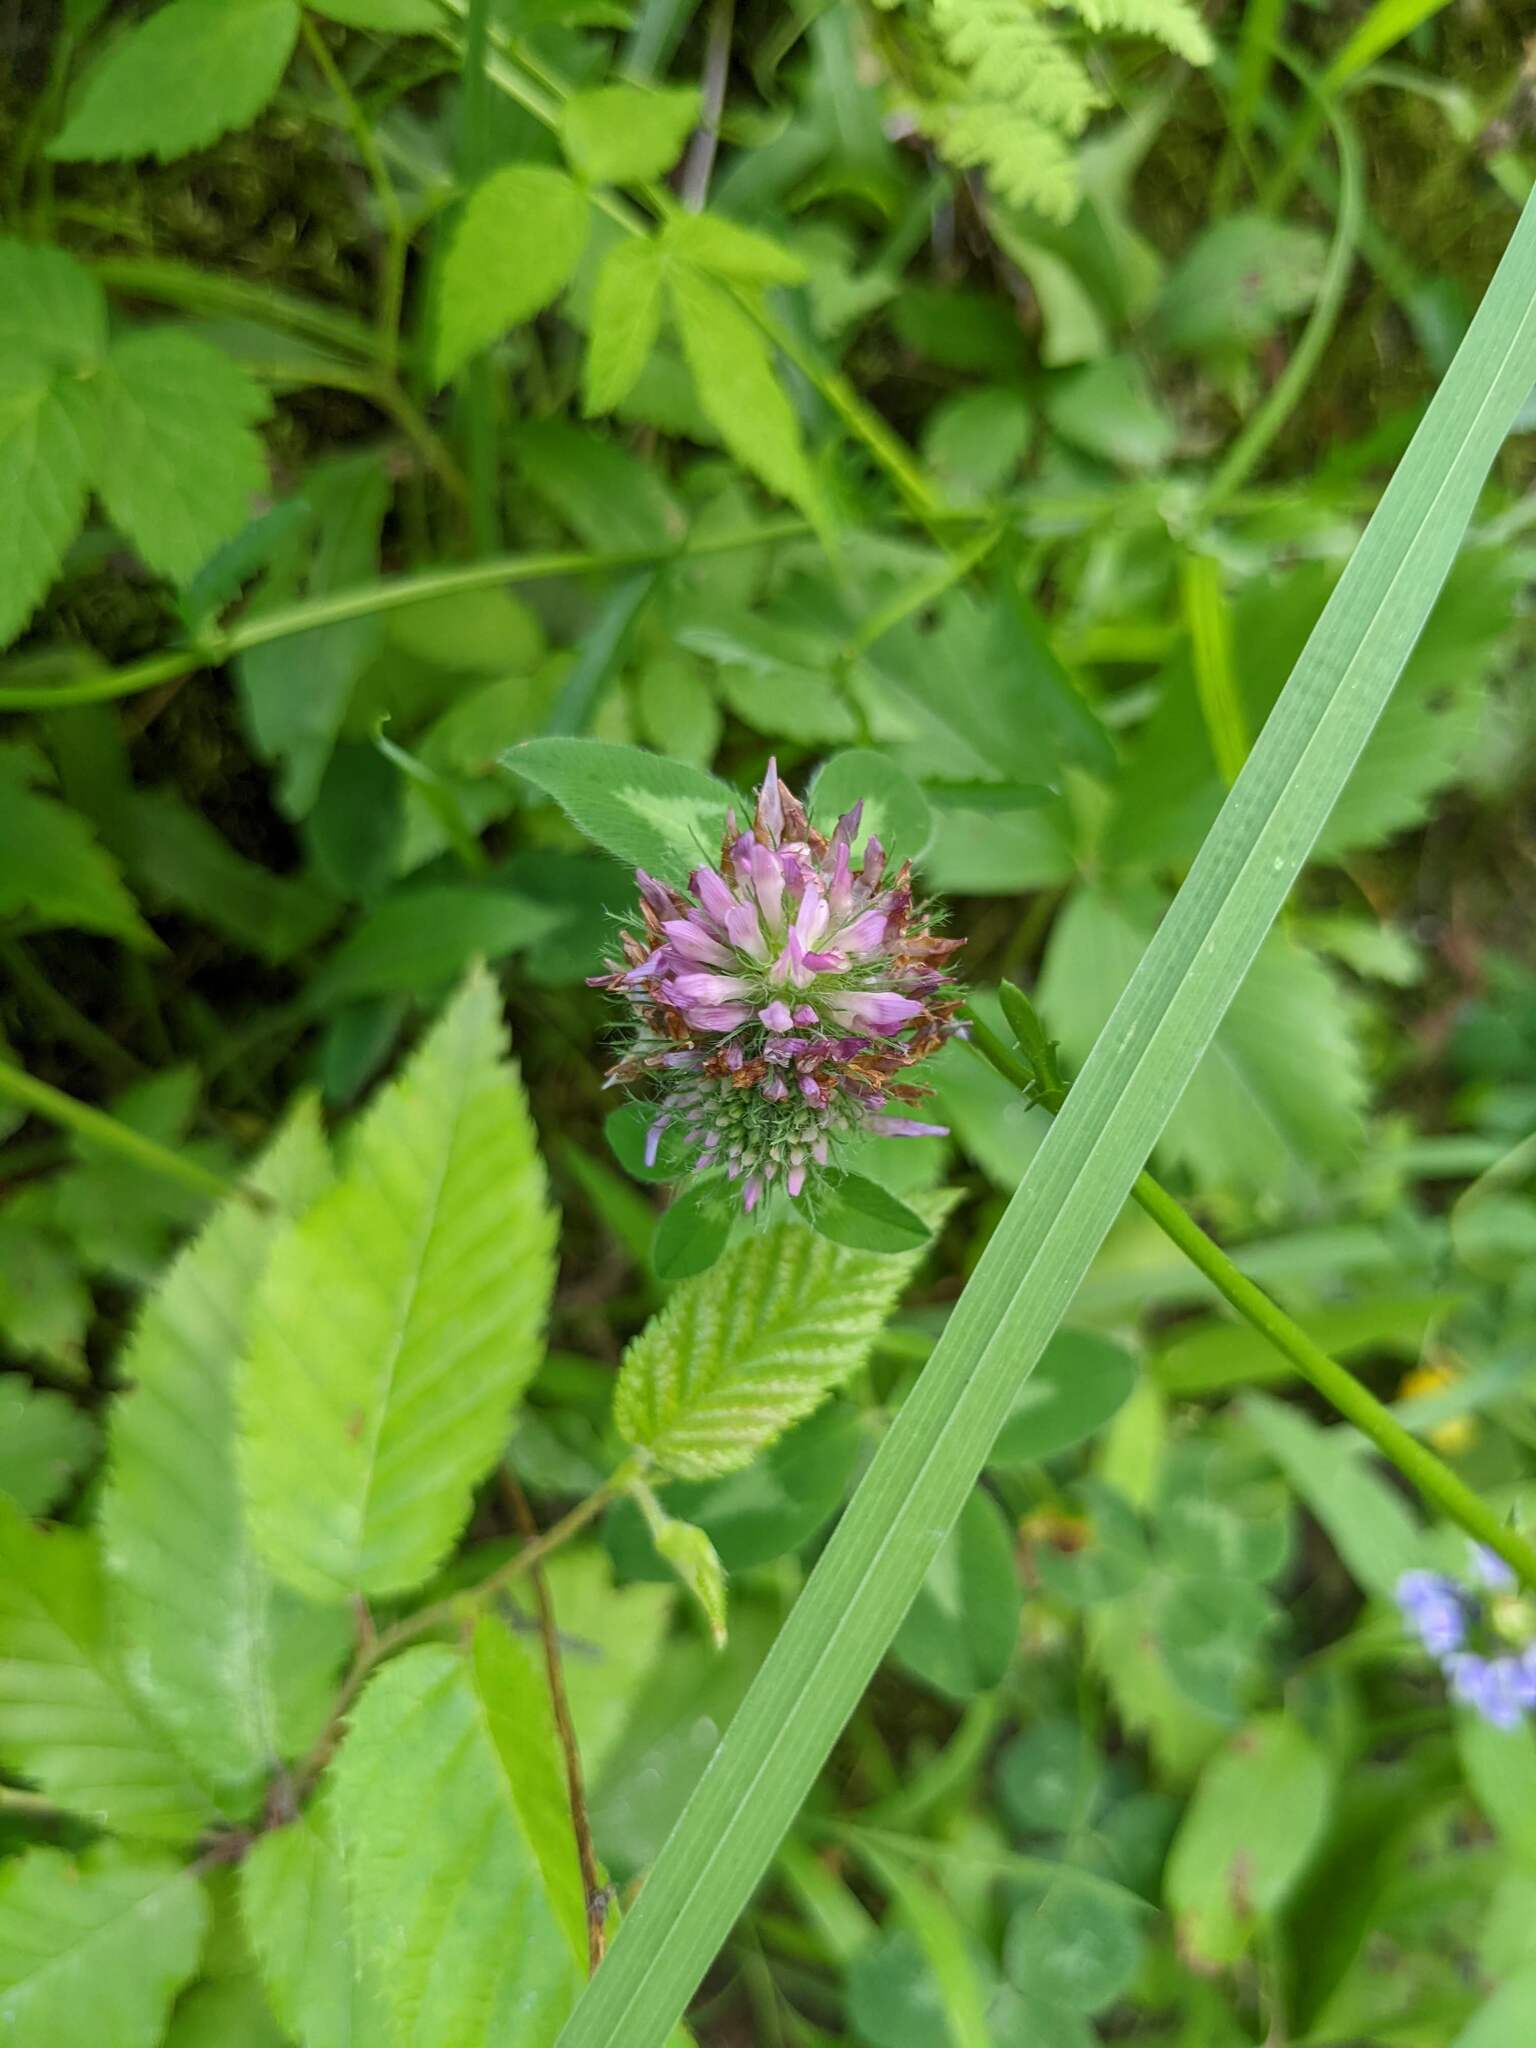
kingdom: Plantae
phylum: Tracheophyta
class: Magnoliopsida
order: Fabales
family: Fabaceae
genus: Trifolium
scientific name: Trifolium pratense
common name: Red clover
